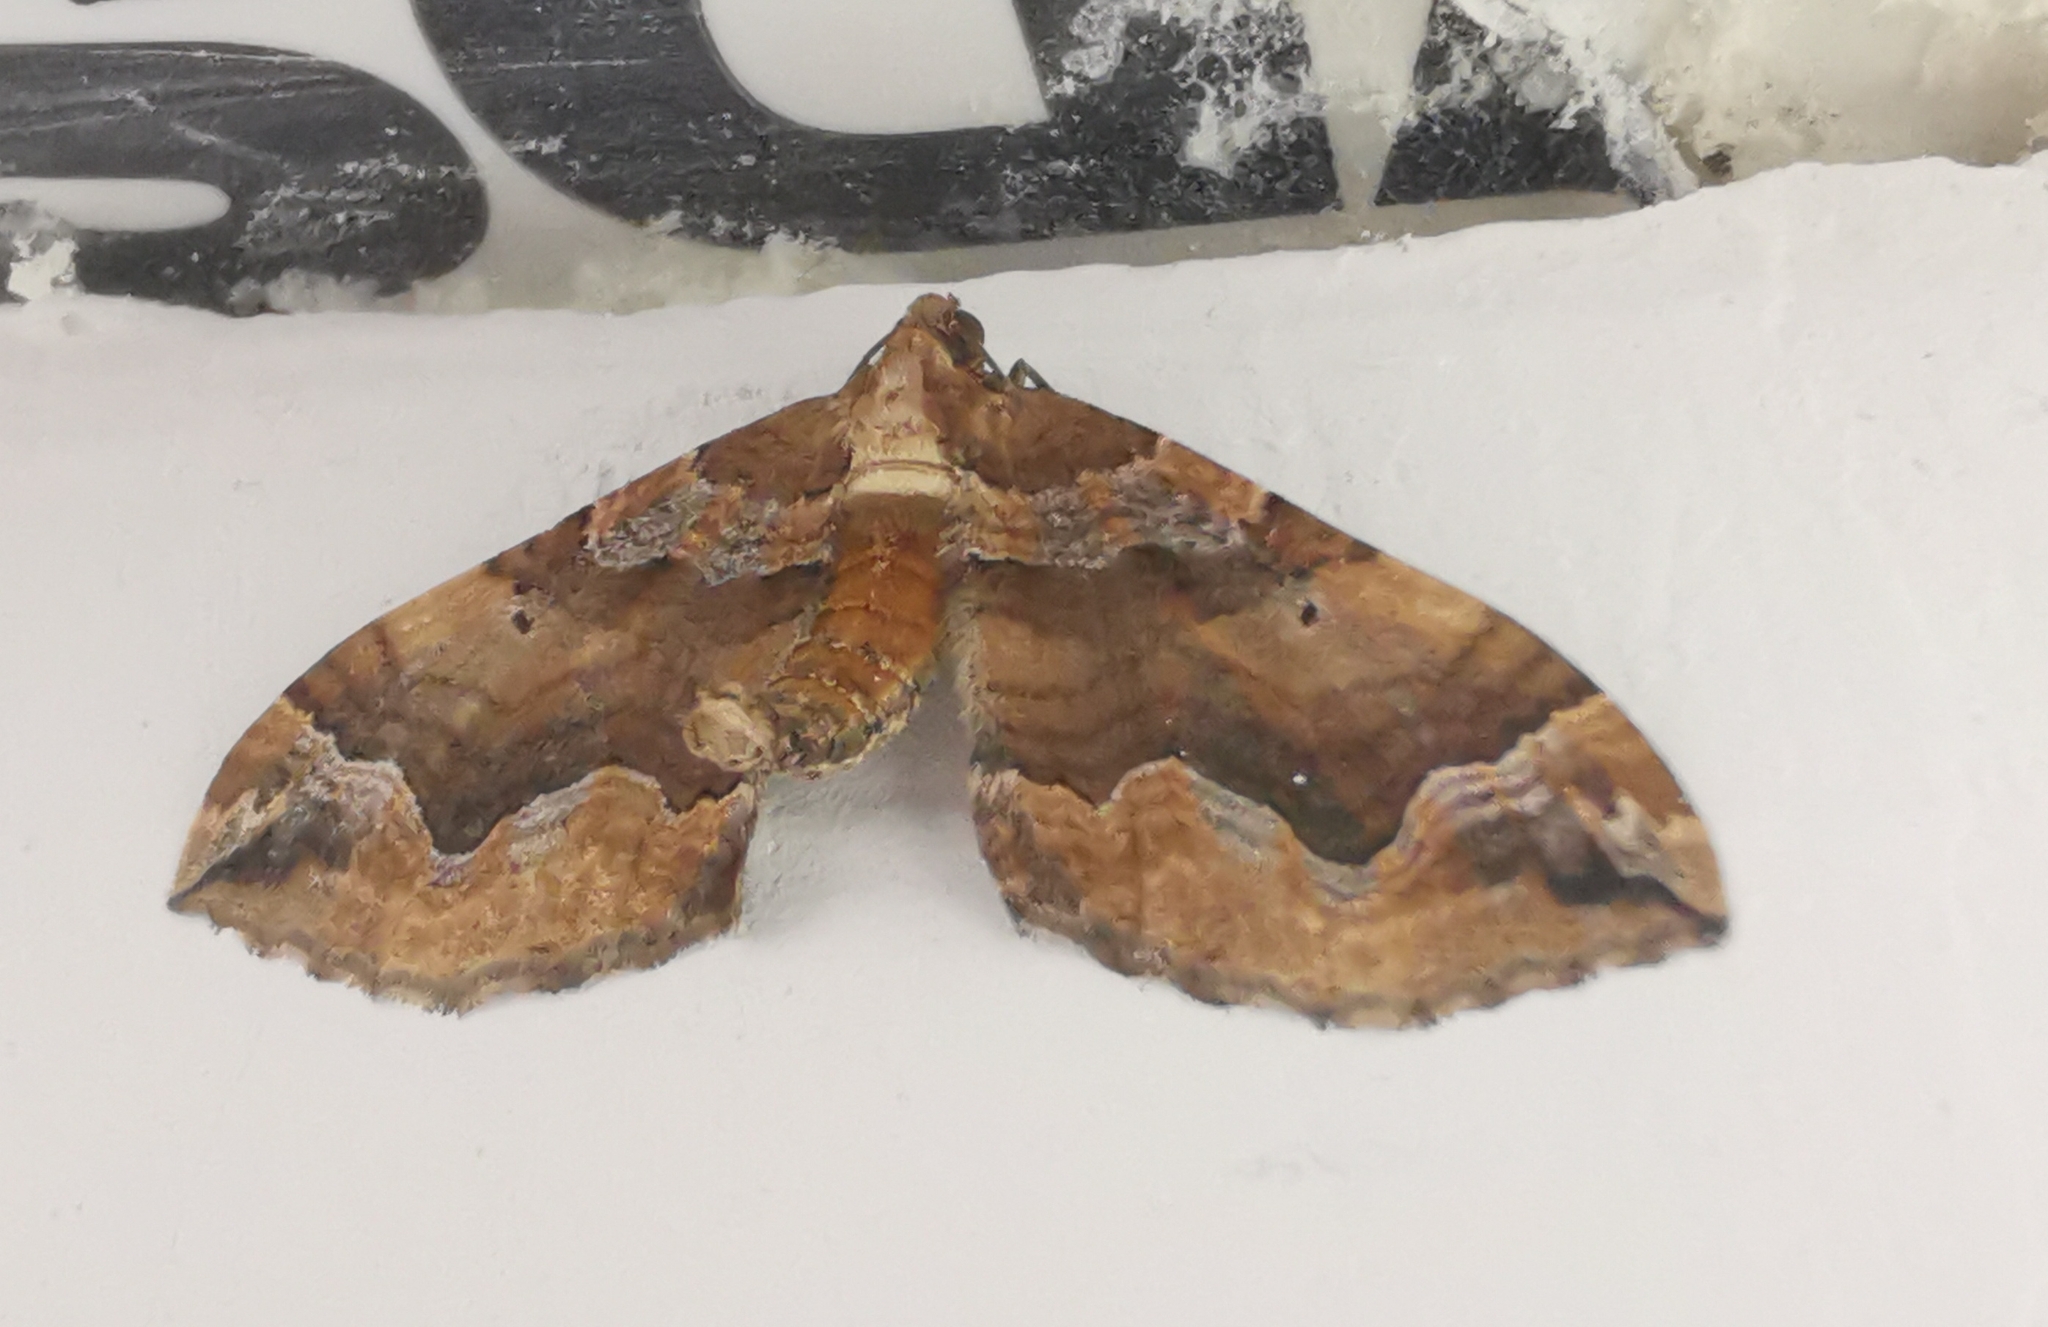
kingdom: Animalia
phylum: Arthropoda
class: Insecta
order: Lepidoptera
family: Geometridae
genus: Pelurga
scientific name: Pelurga comitata
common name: Dark spinach
